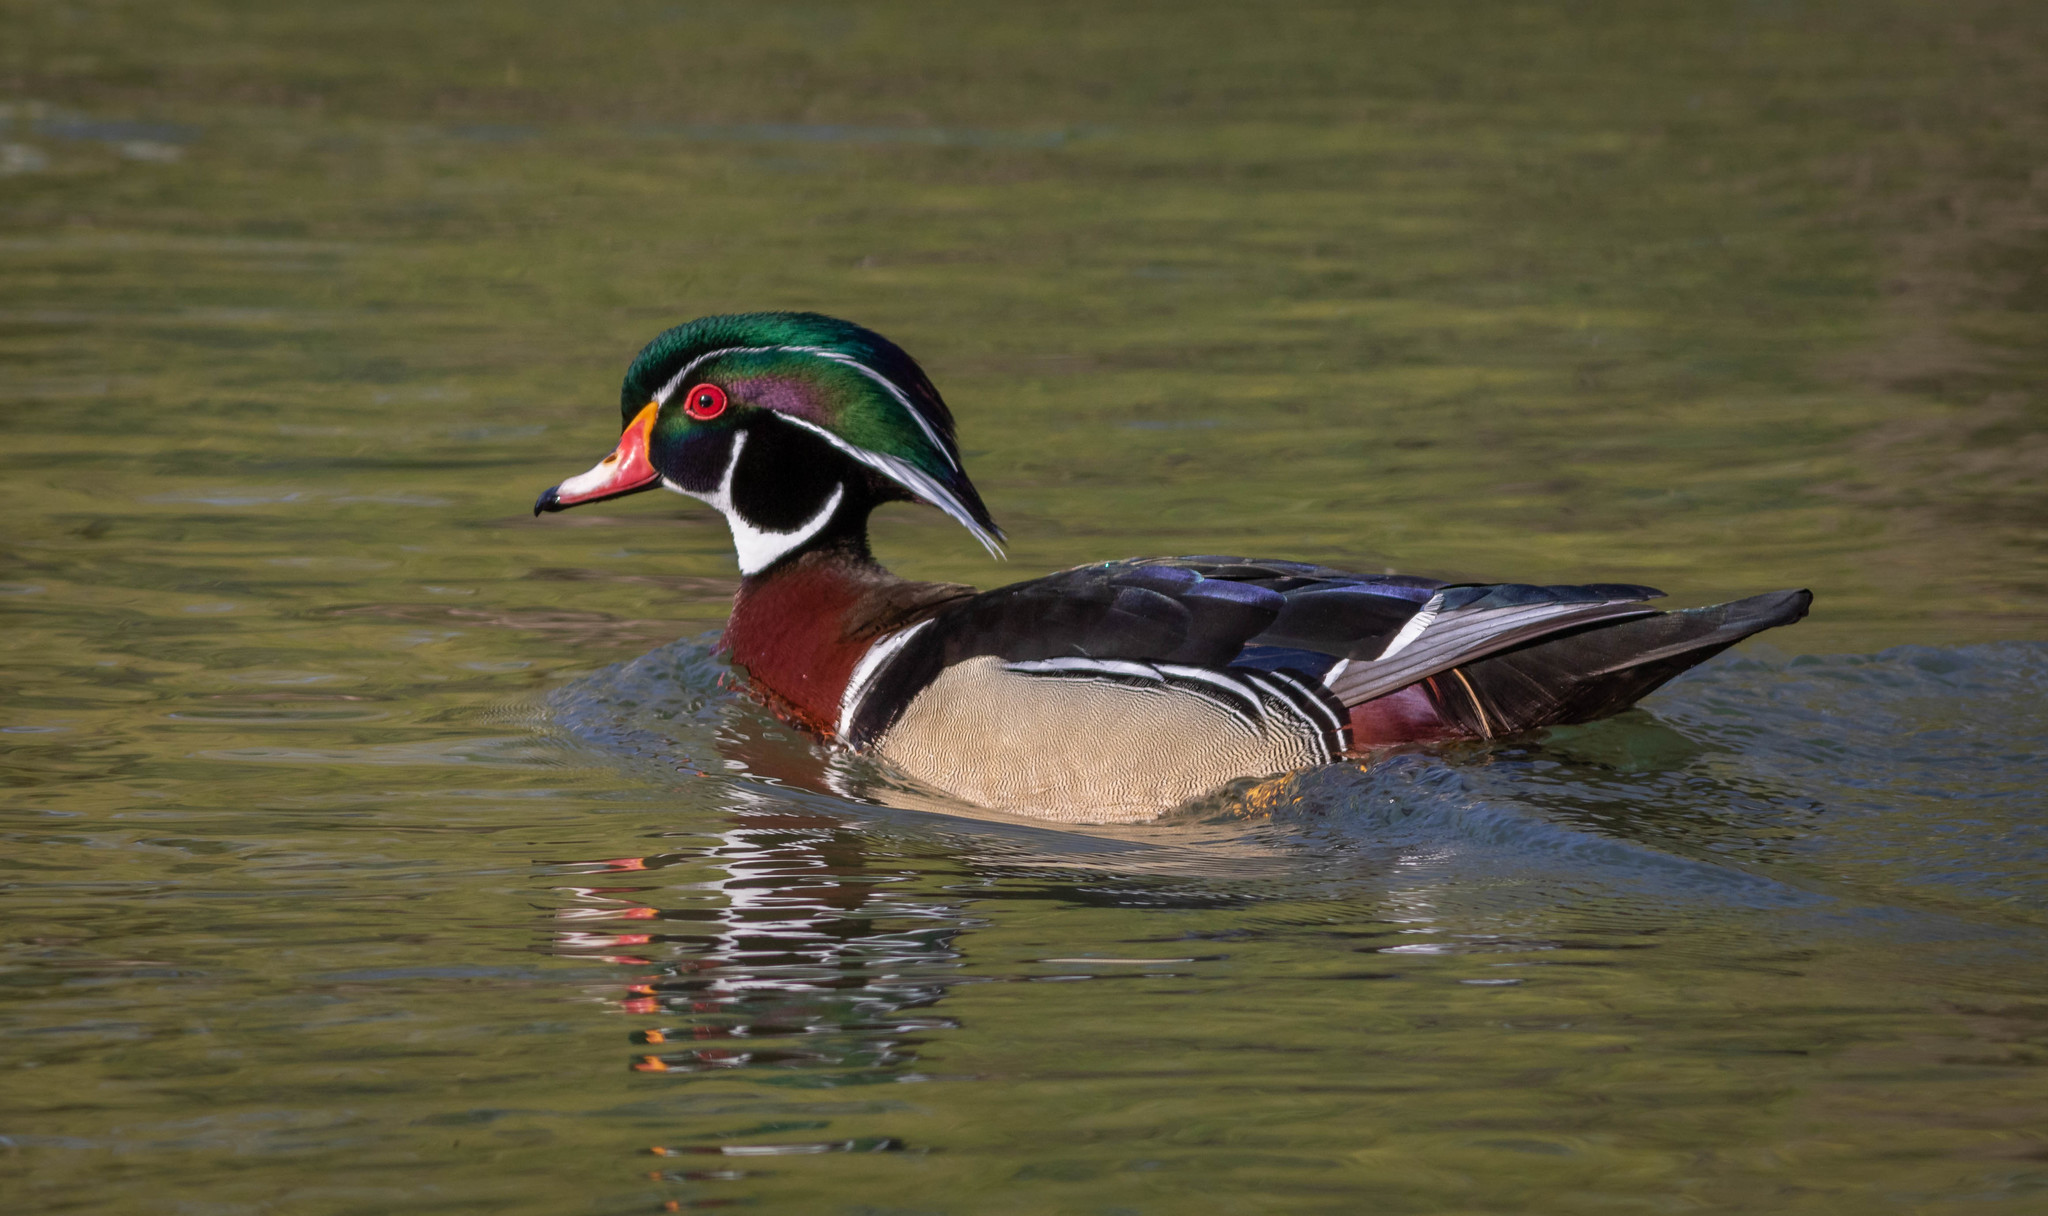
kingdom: Animalia
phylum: Chordata
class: Aves
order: Anseriformes
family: Anatidae
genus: Aix
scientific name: Aix sponsa
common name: Wood duck
